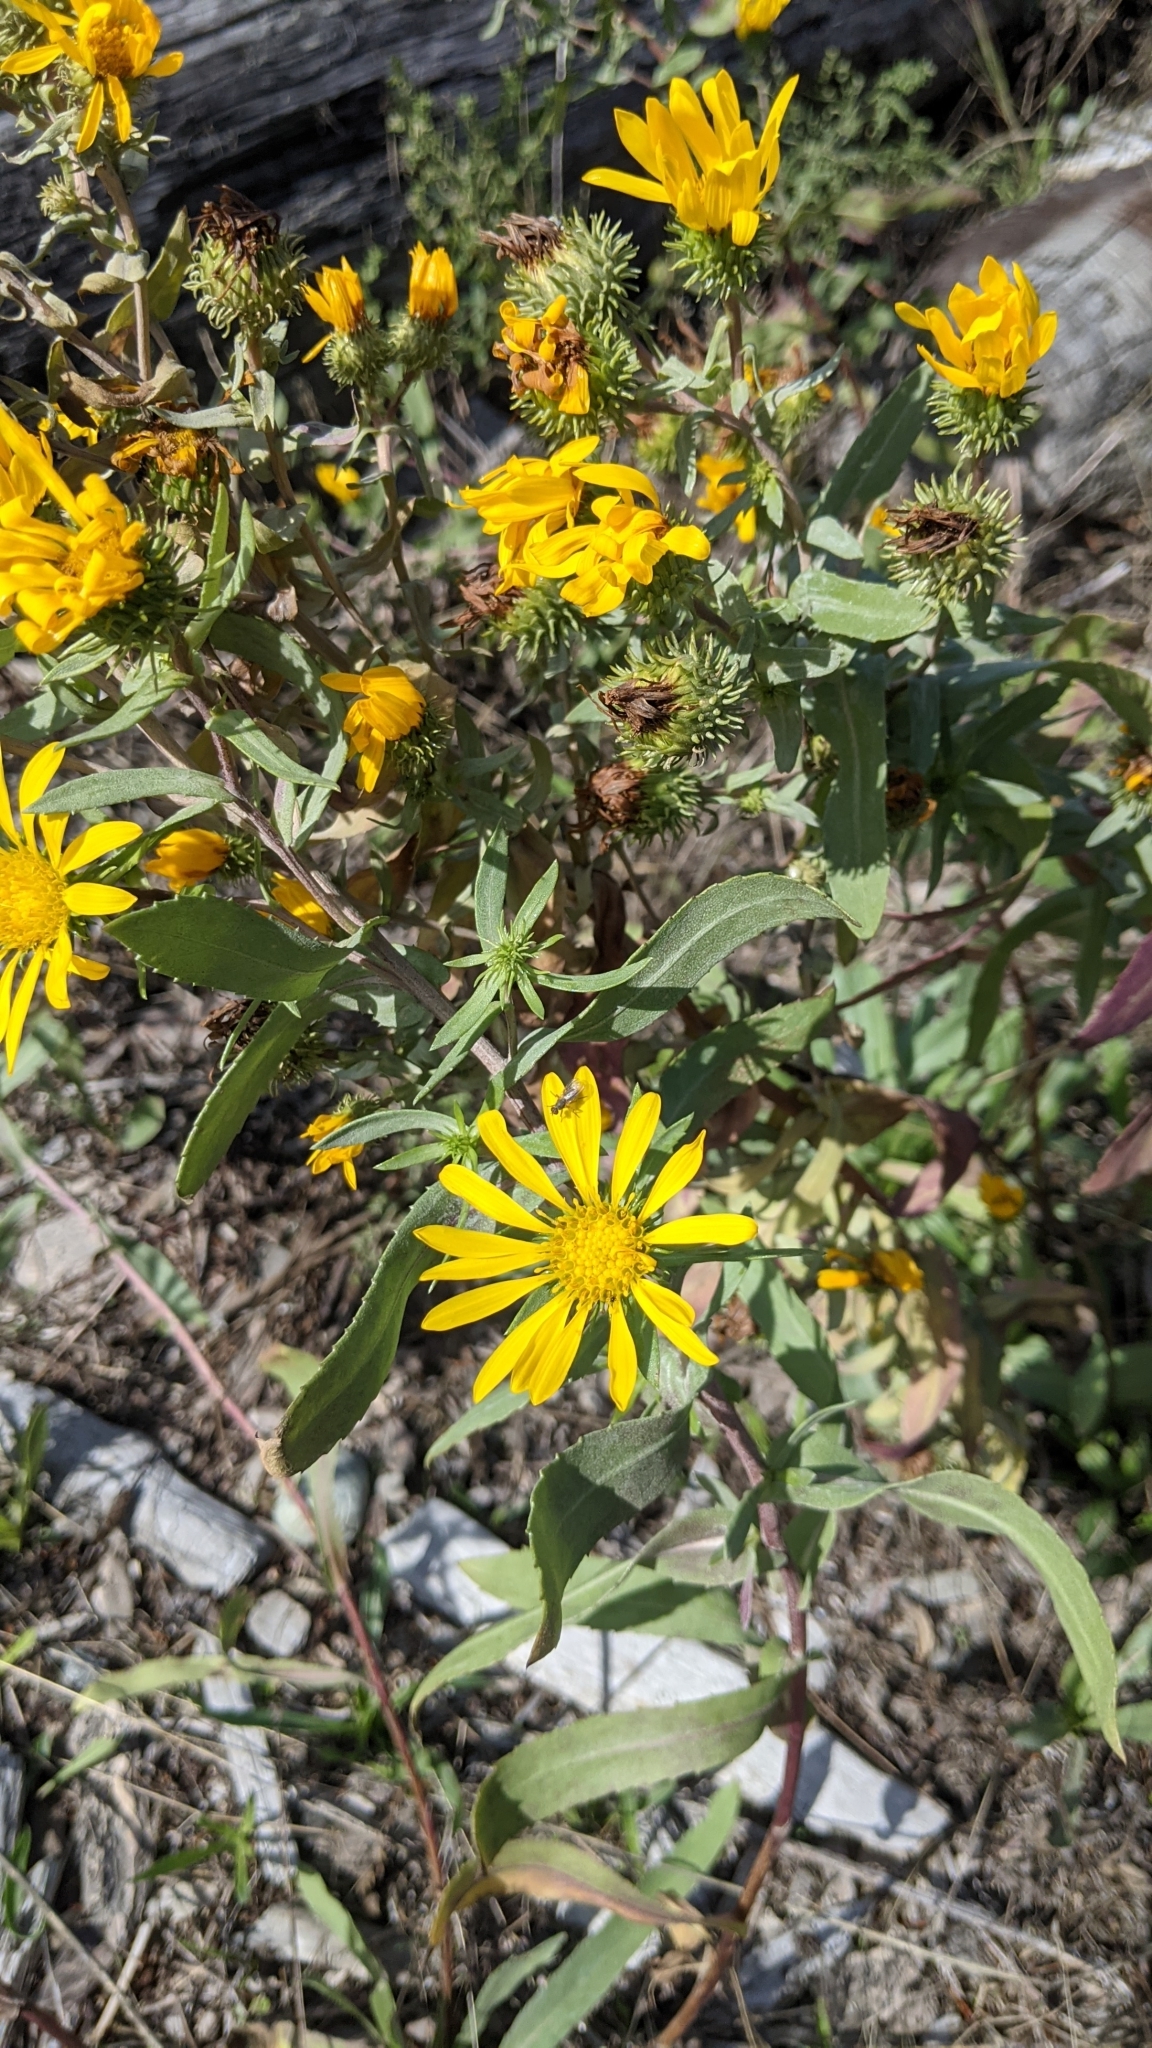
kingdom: Plantae
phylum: Tracheophyta
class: Magnoliopsida
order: Asterales
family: Asteraceae
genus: Grindelia
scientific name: Grindelia hirsutula
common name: Hairy gumweed
